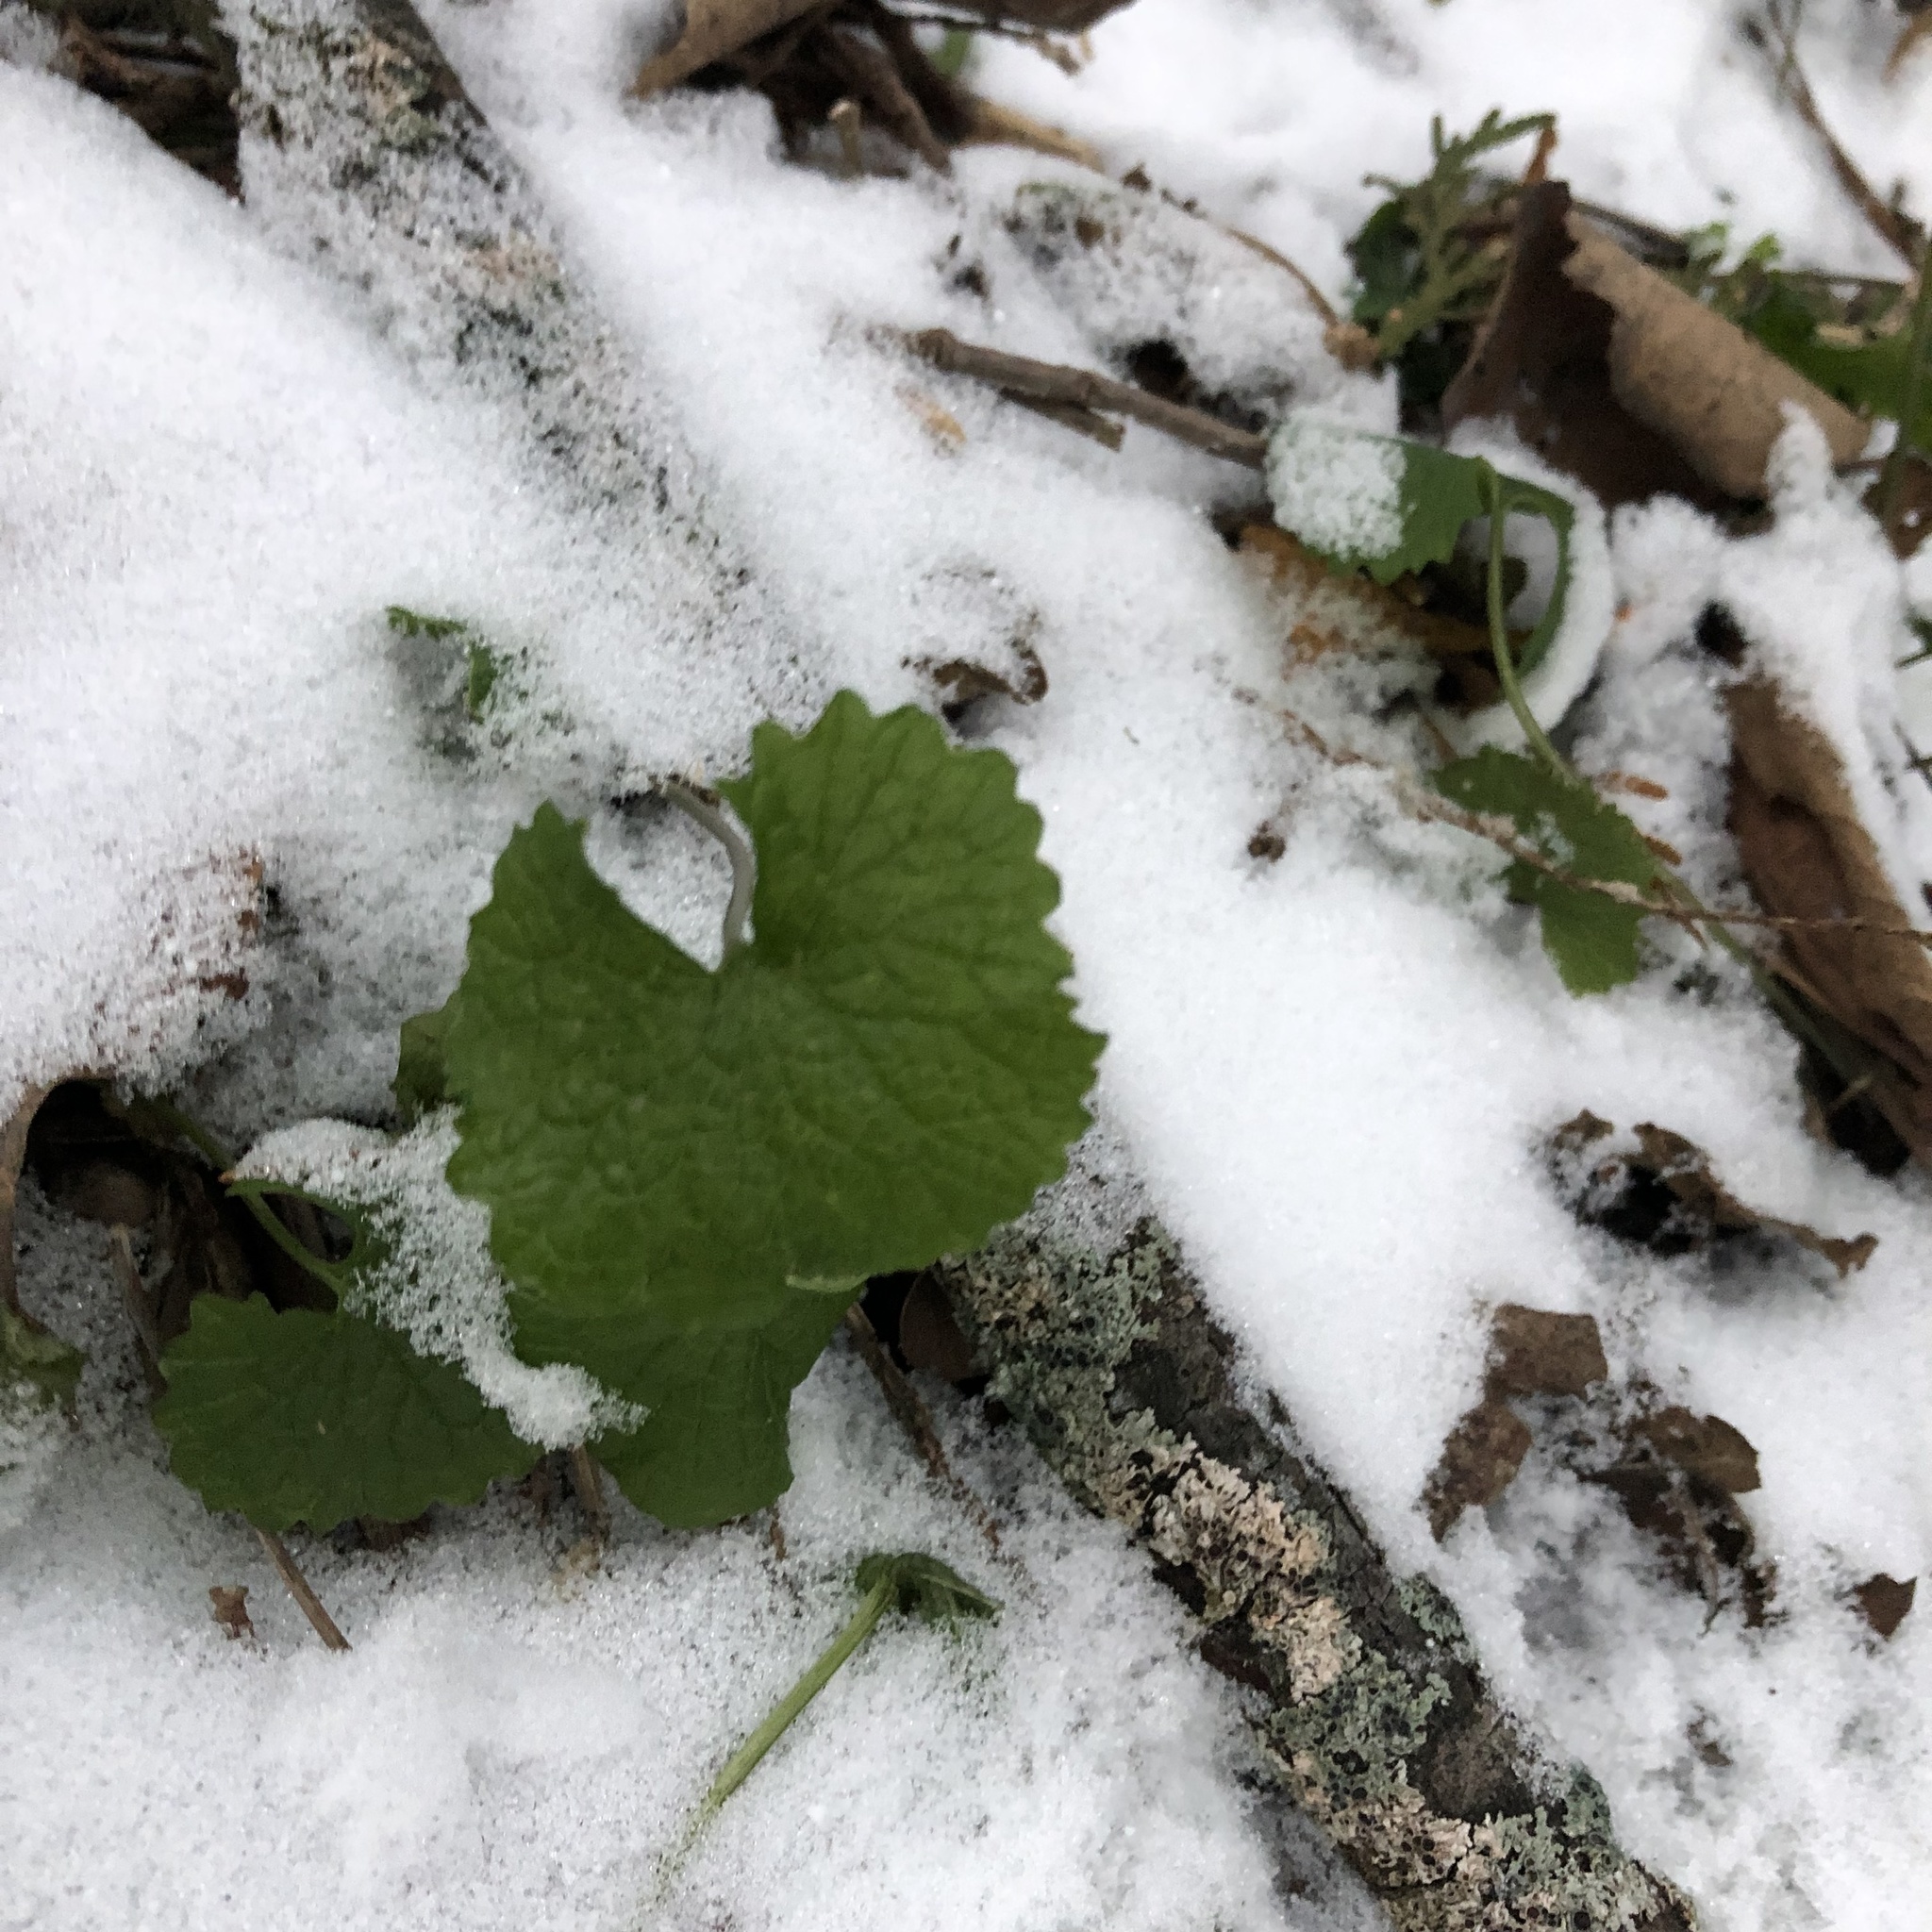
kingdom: Plantae
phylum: Tracheophyta
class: Magnoliopsida
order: Brassicales
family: Brassicaceae
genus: Alliaria
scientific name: Alliaria petiolata
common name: Garlic mustard
